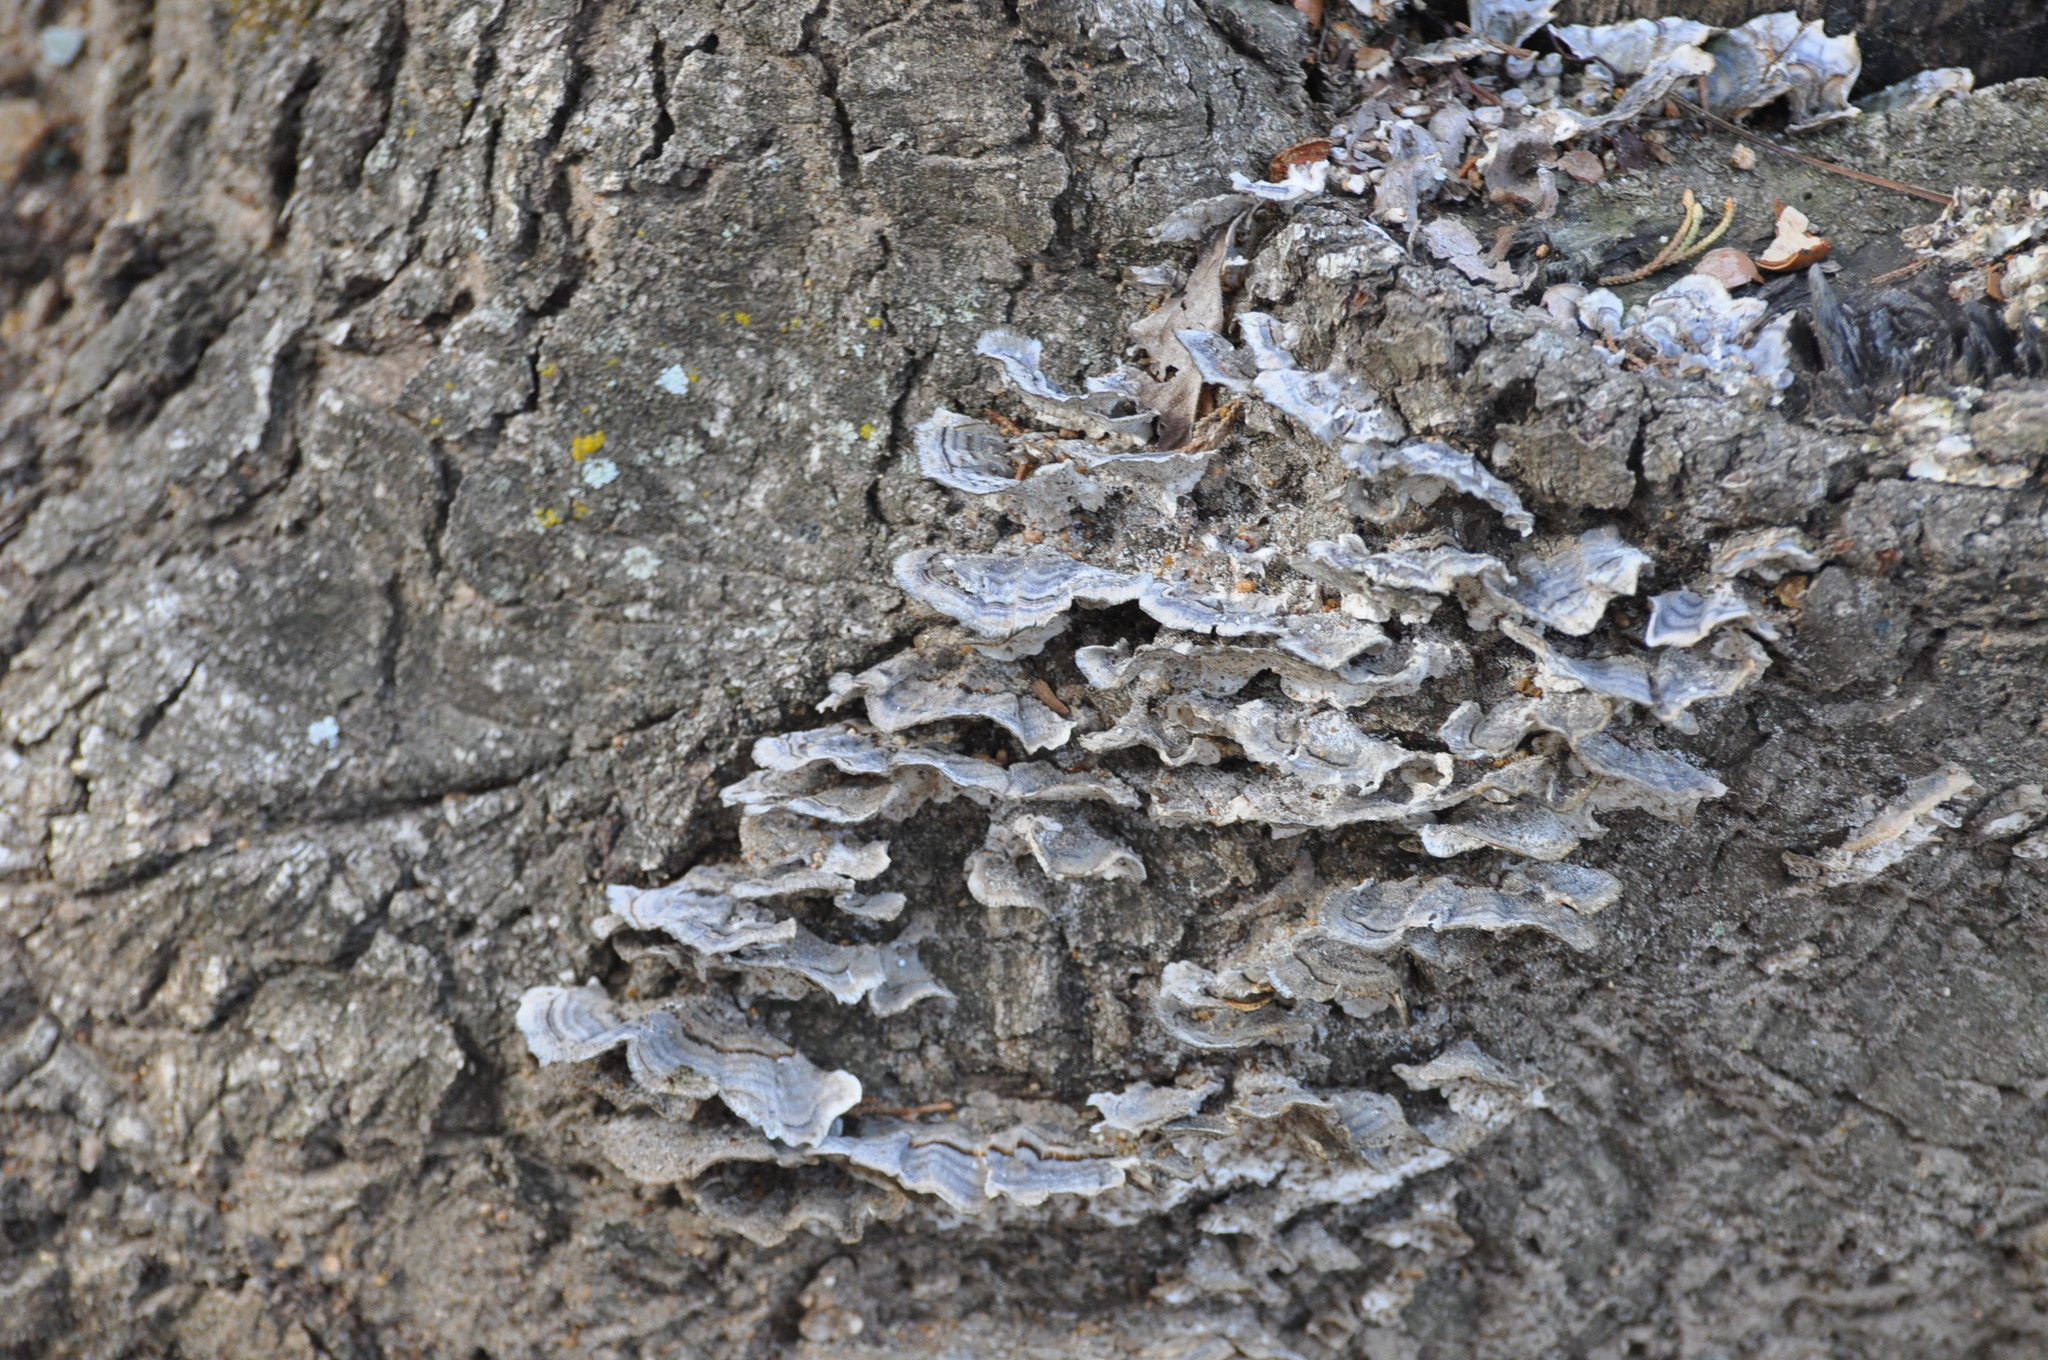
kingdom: Fungi
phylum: Basidiomycota
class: Agaricomycetes
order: Polyporales
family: Polyporaceae
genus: Trametes
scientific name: Trametes versicolor
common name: Turkeytail
